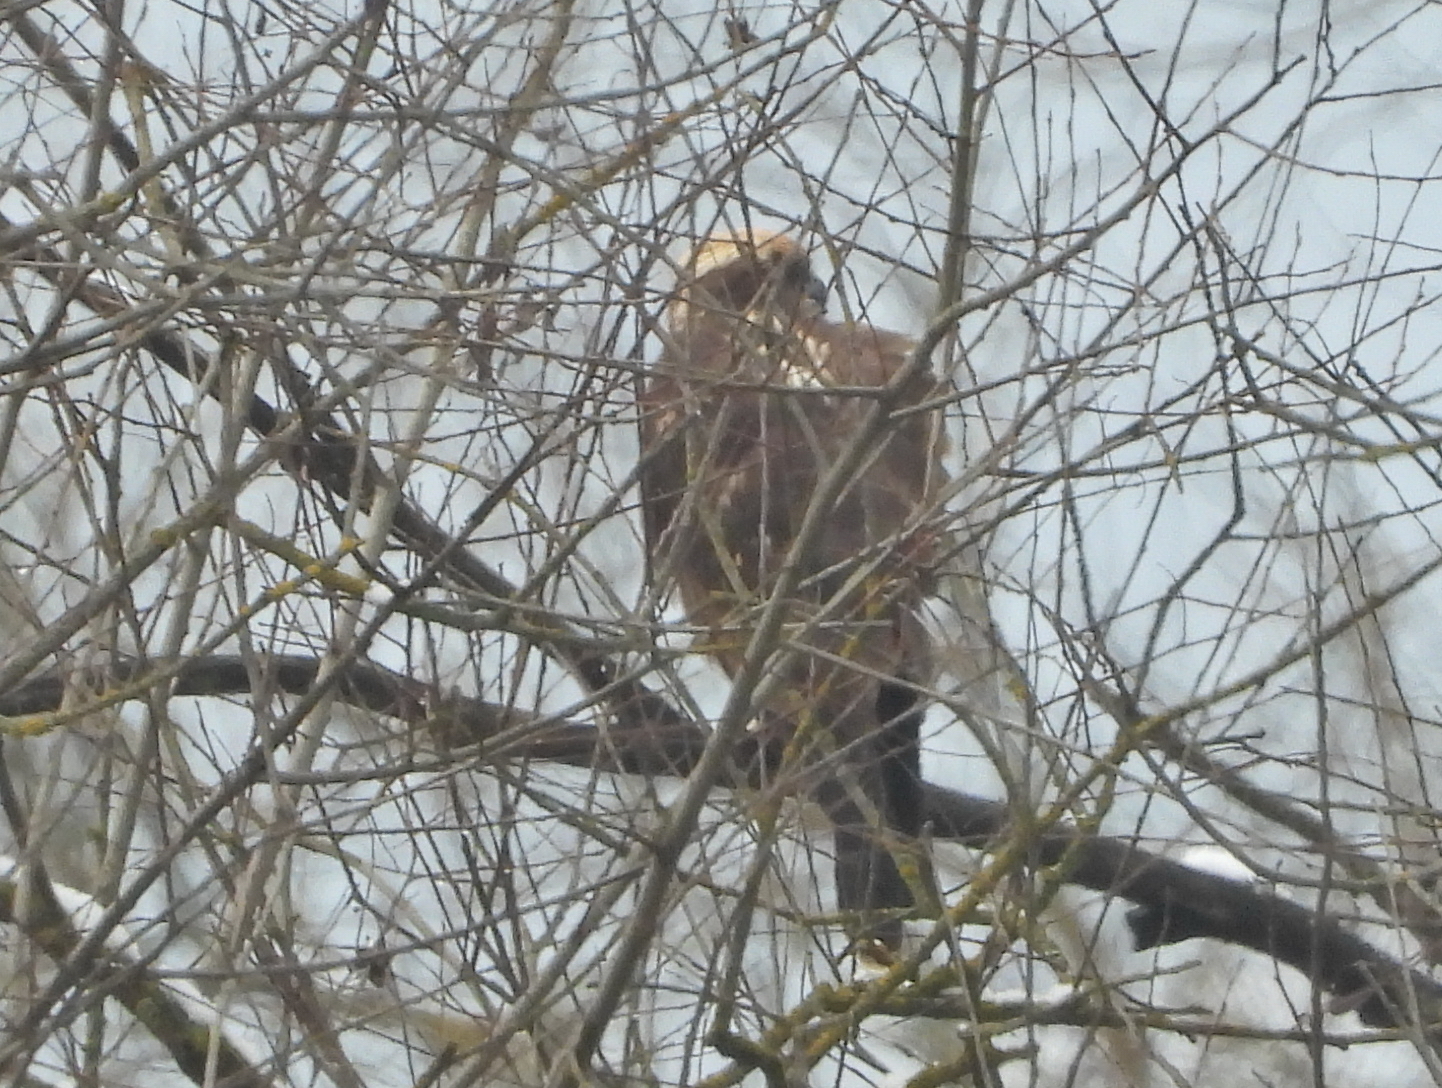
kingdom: Animalia
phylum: Chordata
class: Aves
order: Accipitriformes
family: Accipitridae
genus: Circus
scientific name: Circus aeruginosus
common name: Western marsh harrier
